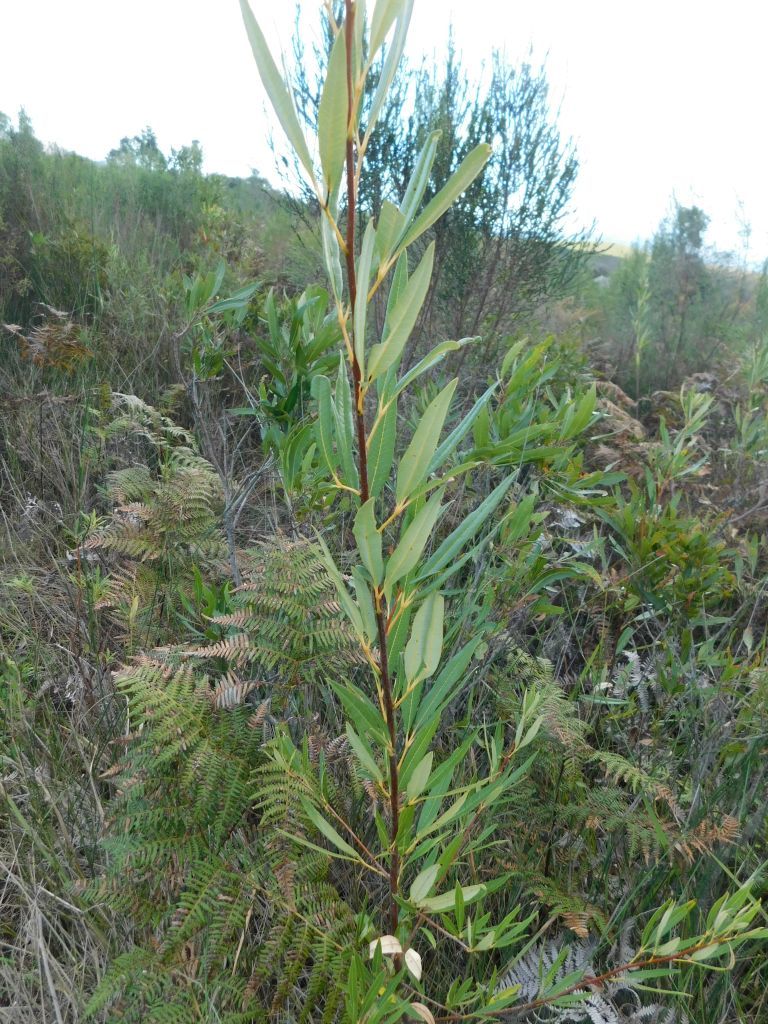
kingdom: Plantae
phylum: Tracheophyta
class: Magnoliopsida
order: Sapindales
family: Anacardiaceae
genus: Searsia
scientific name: Searsia angustifolia
